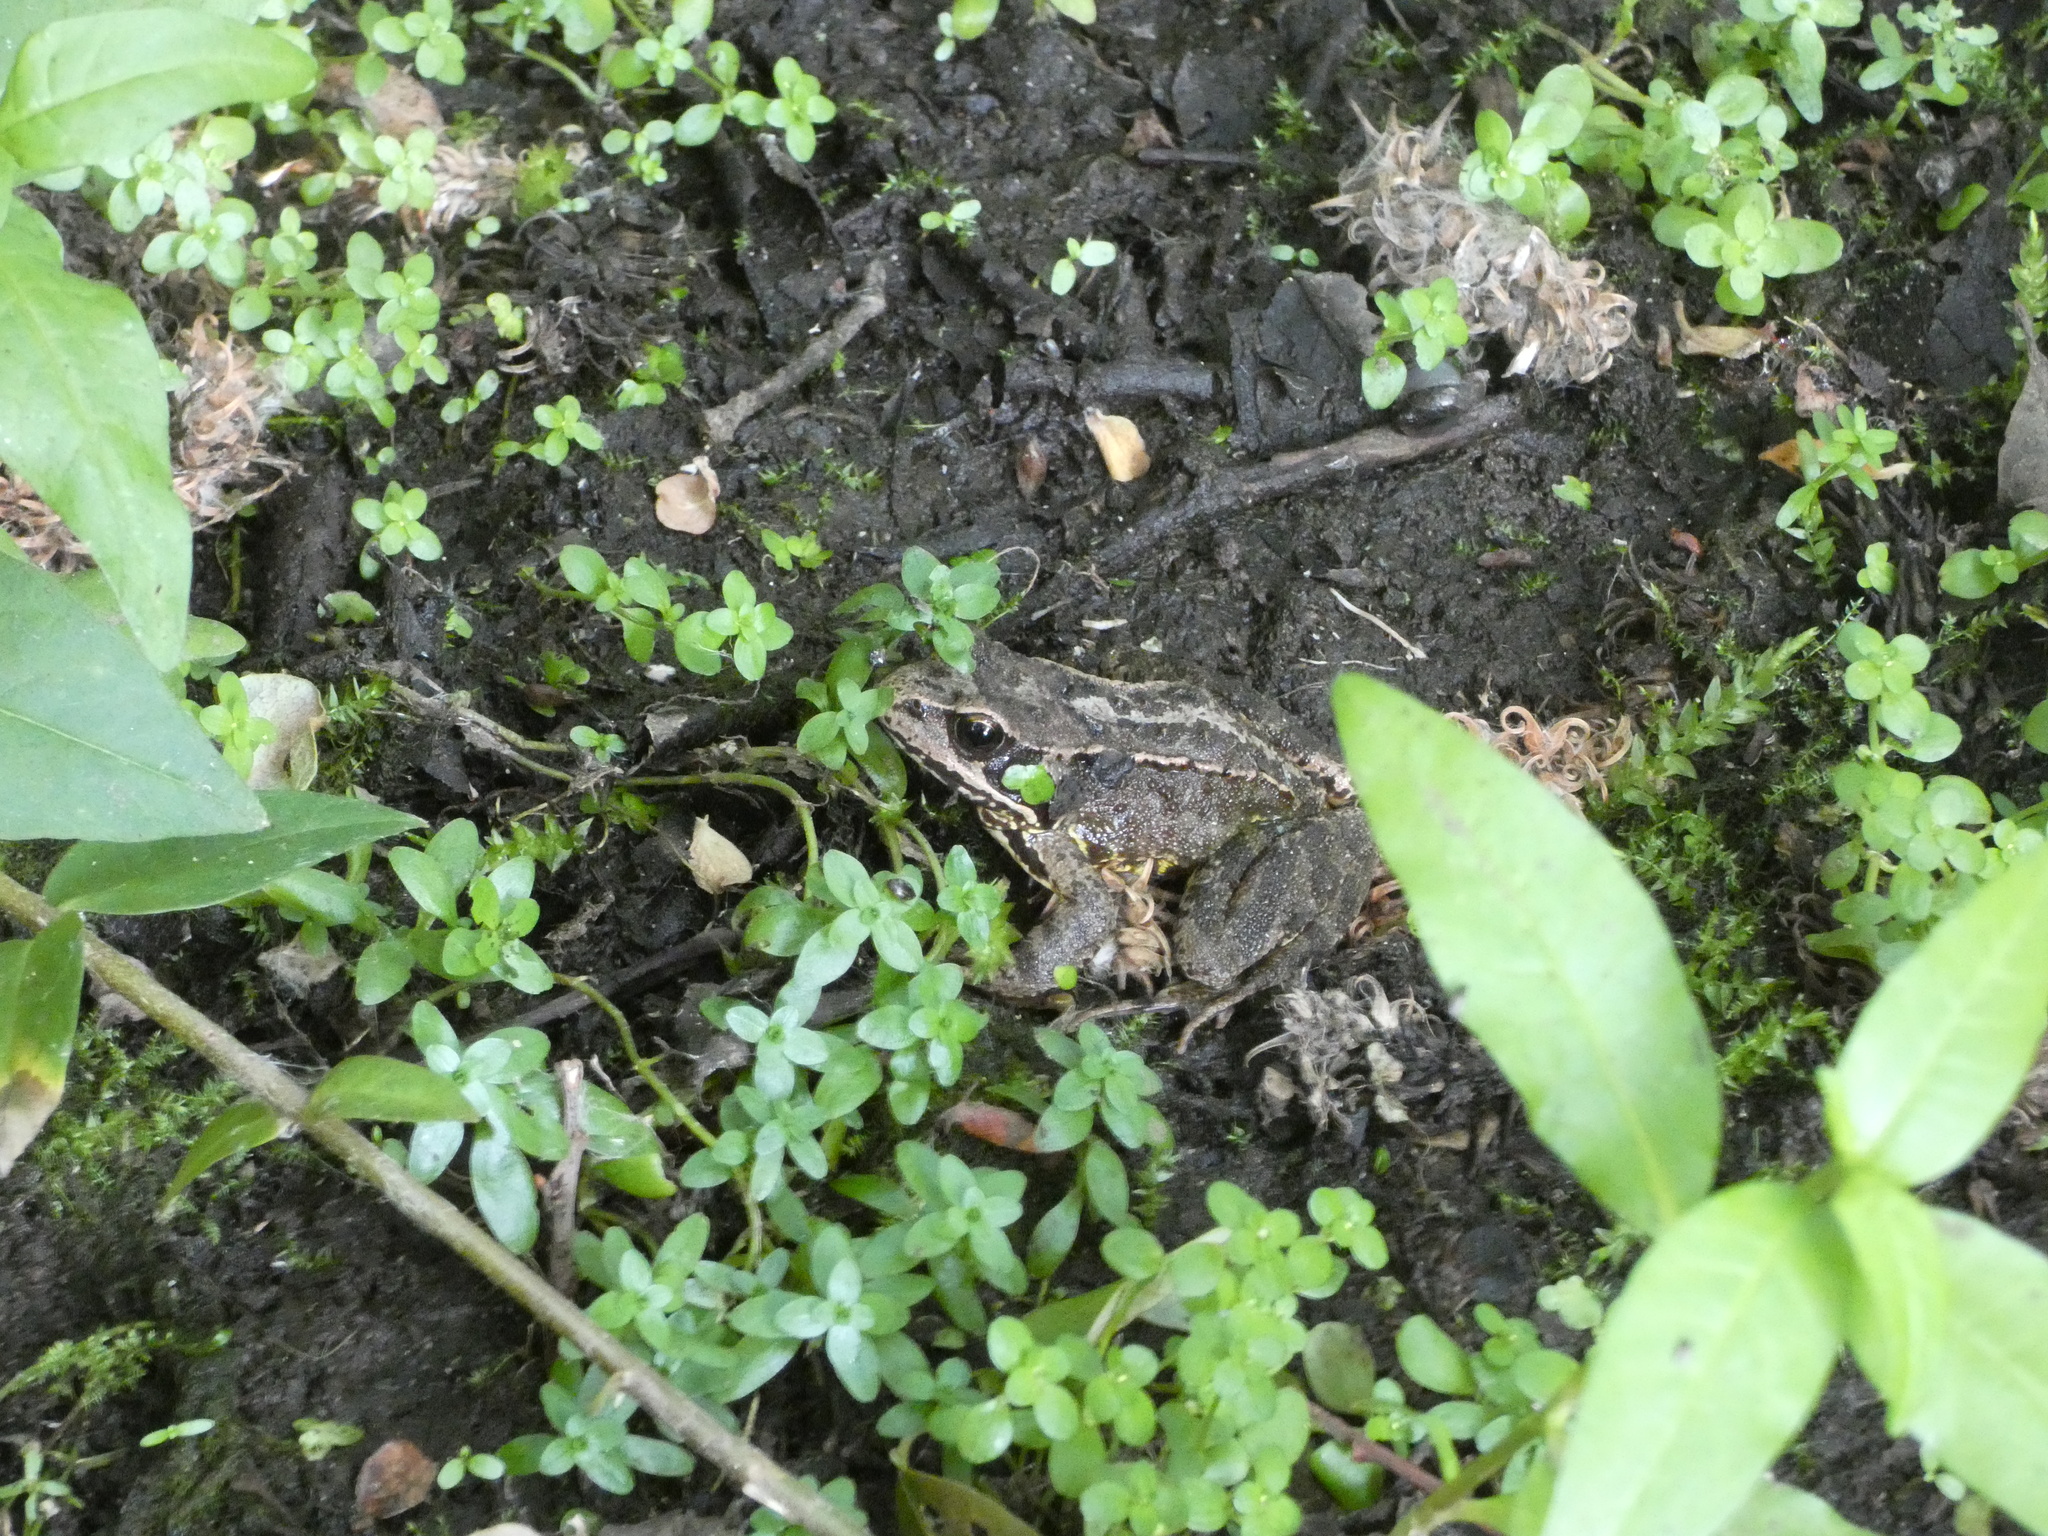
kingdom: Animalia
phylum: Chordata
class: Amphibia
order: Anura
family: Ranidae
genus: Rana
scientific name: Rana temporaria
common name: Common frog
